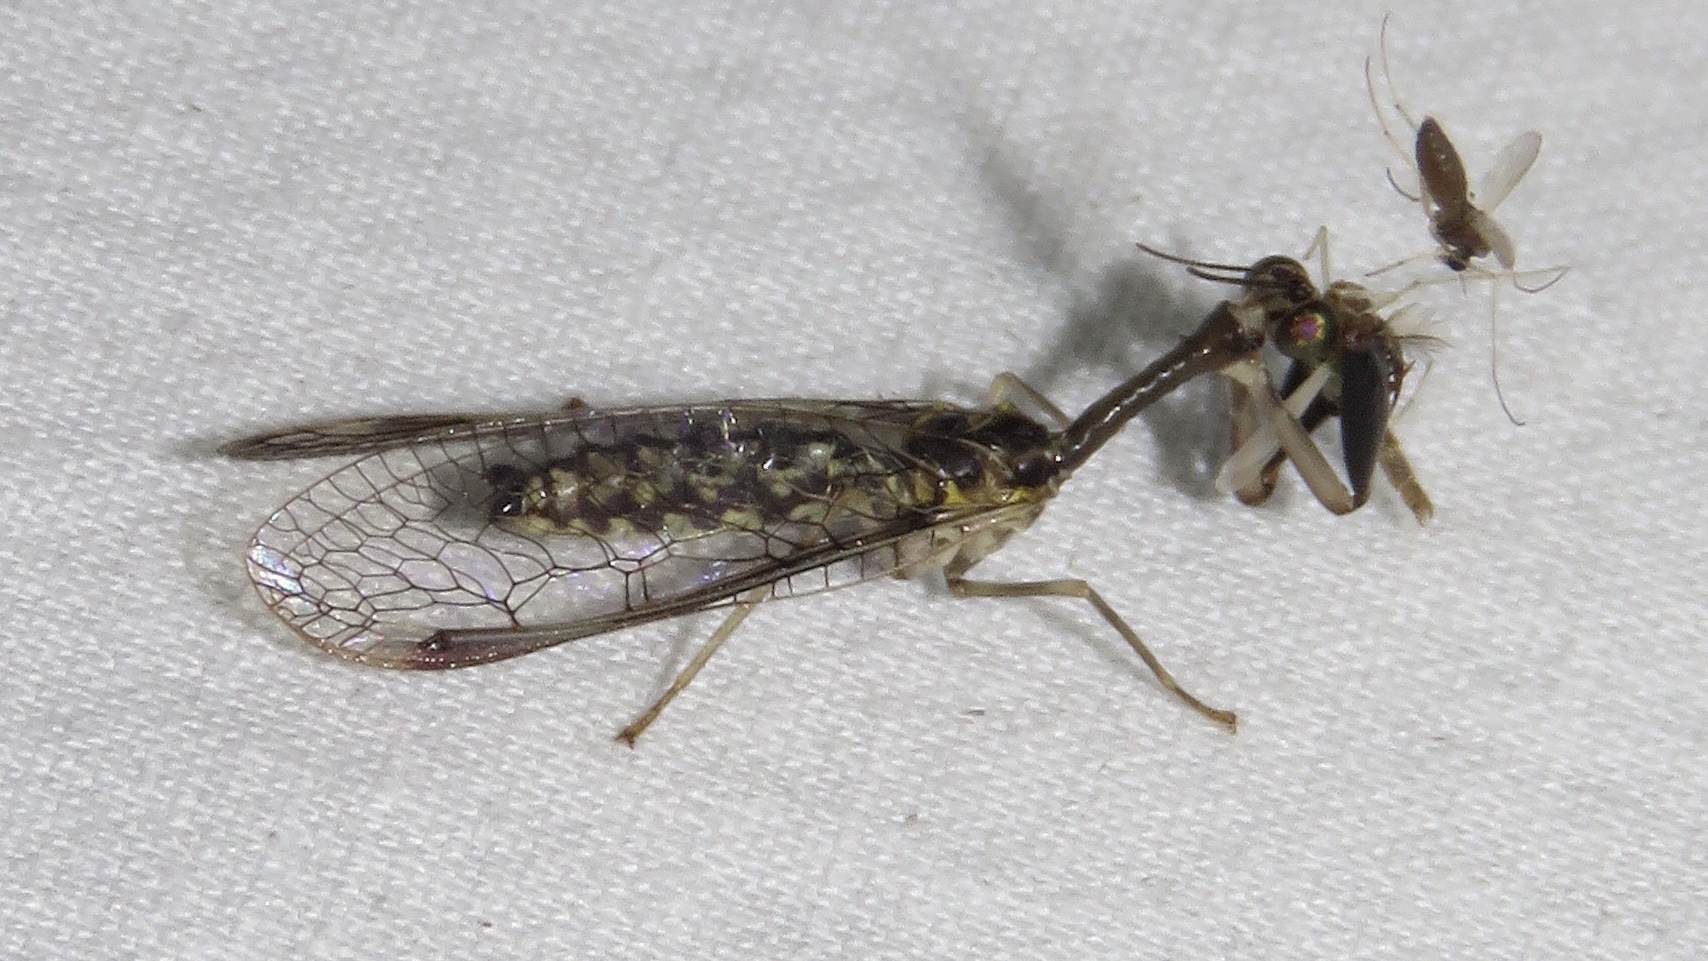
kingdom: Animalia
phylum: Arthropoda
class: Insecta
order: Neuroptera
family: Mantispidae
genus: Leptomantispa
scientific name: Leptomantispa pulchella
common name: Stevens's mantidfly
